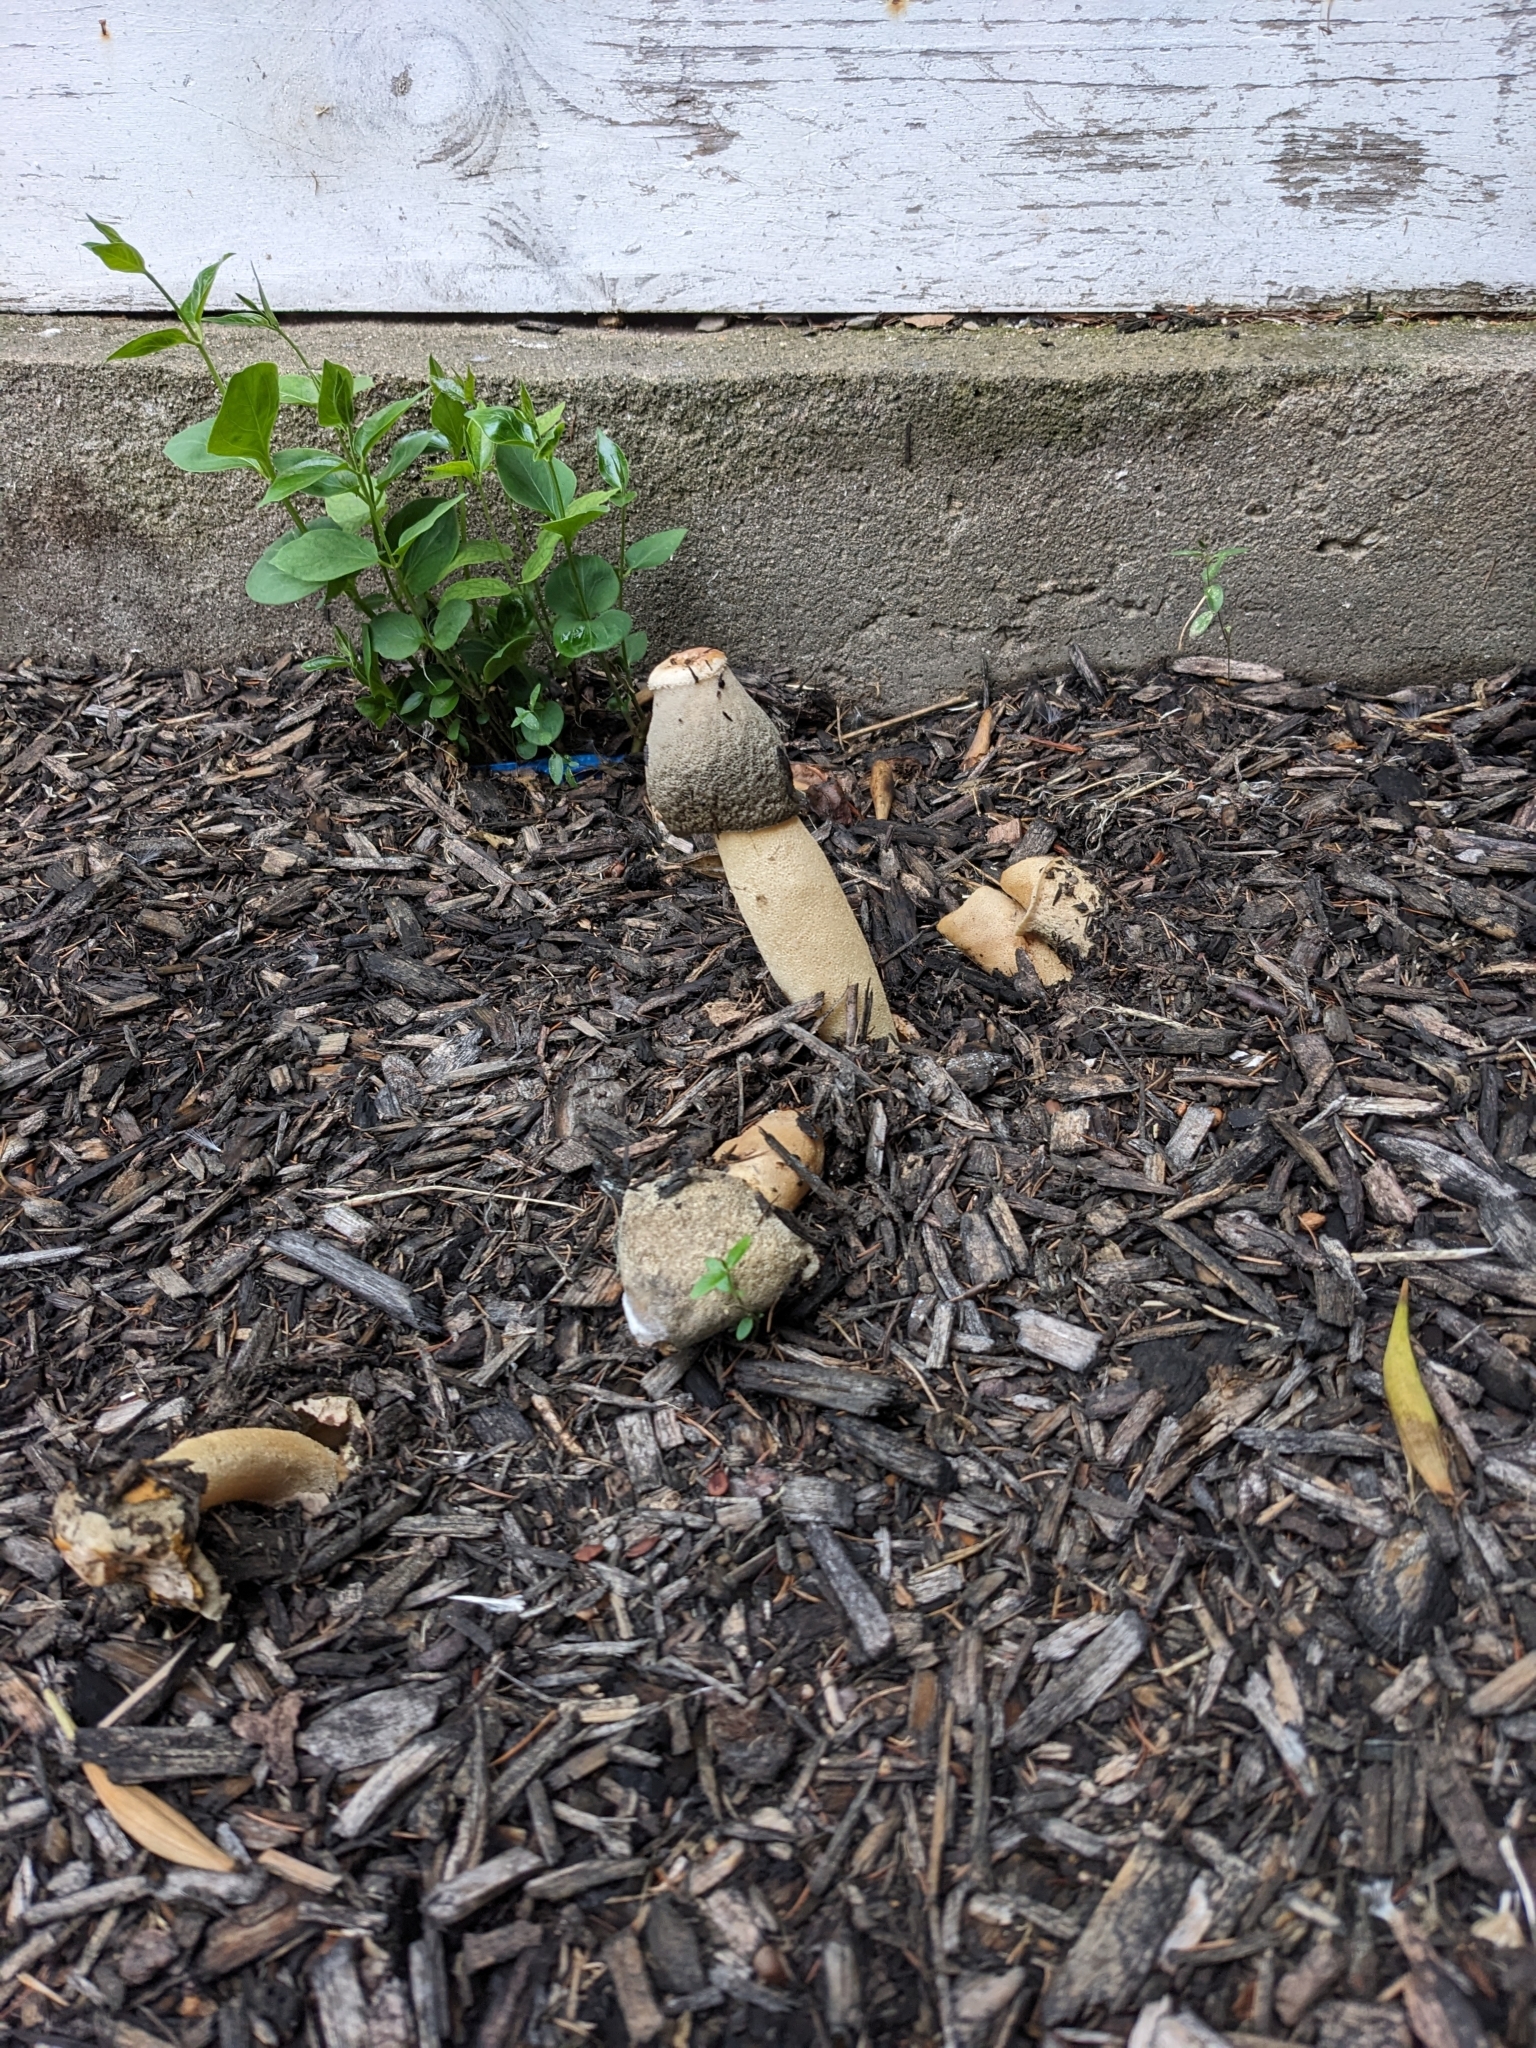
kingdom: Fungi
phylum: Basidiomycota
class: Agaricomycetes
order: Phallales
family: Phallaceae
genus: Phallus
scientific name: Phallus ravenelii
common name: Ravenel's stinkhorn
